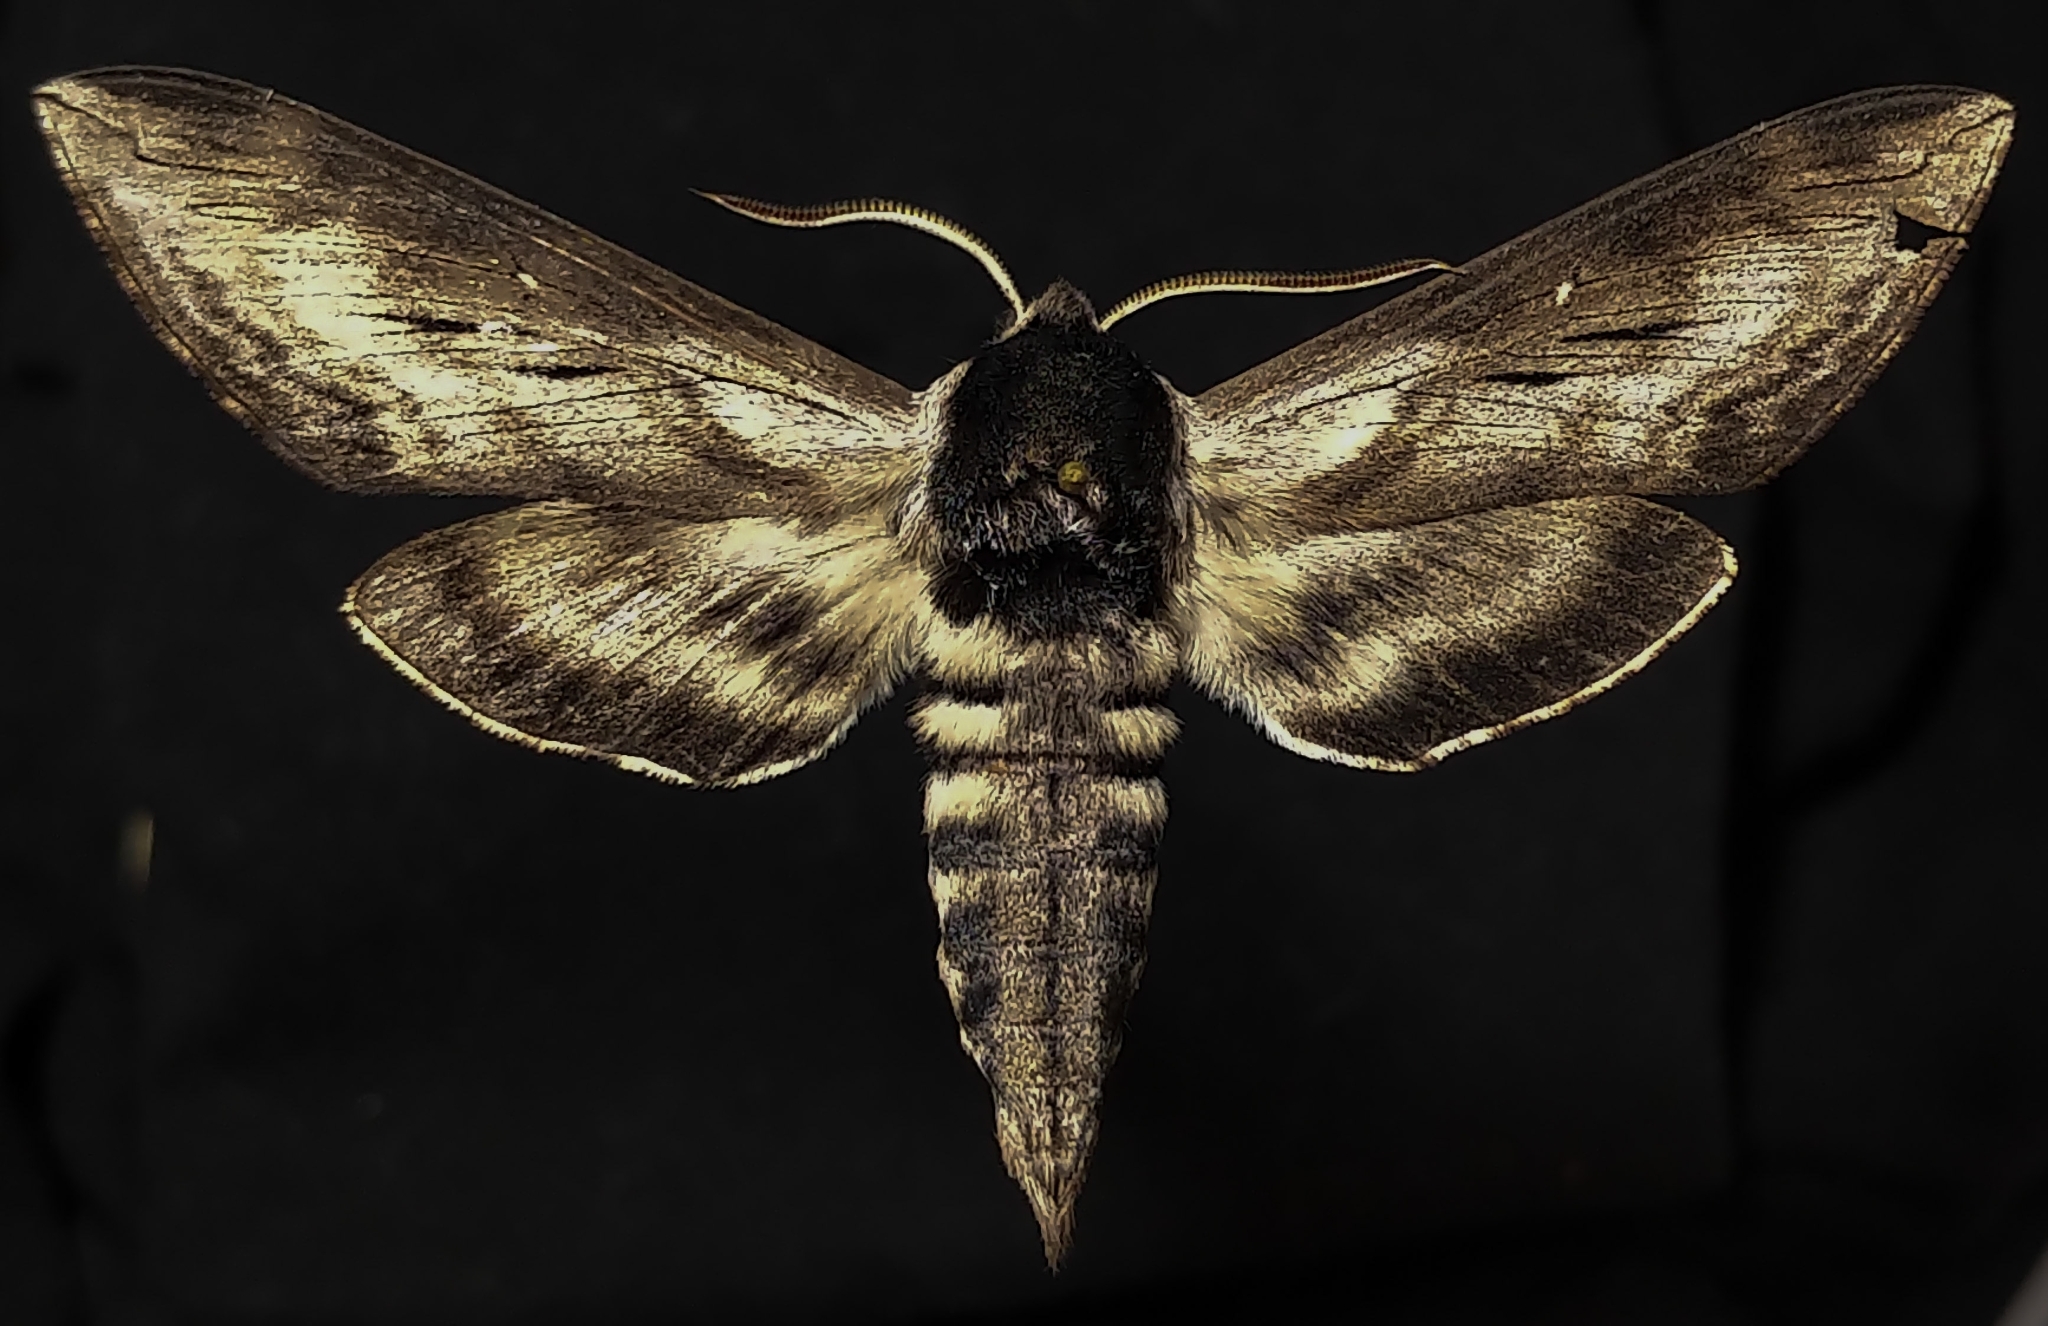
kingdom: Animalia
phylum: Arthropoda
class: Insecta
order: Lepidoptera
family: Sphingidae
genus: Sphinx
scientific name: Sphinx gordius
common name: Apple sphinx
